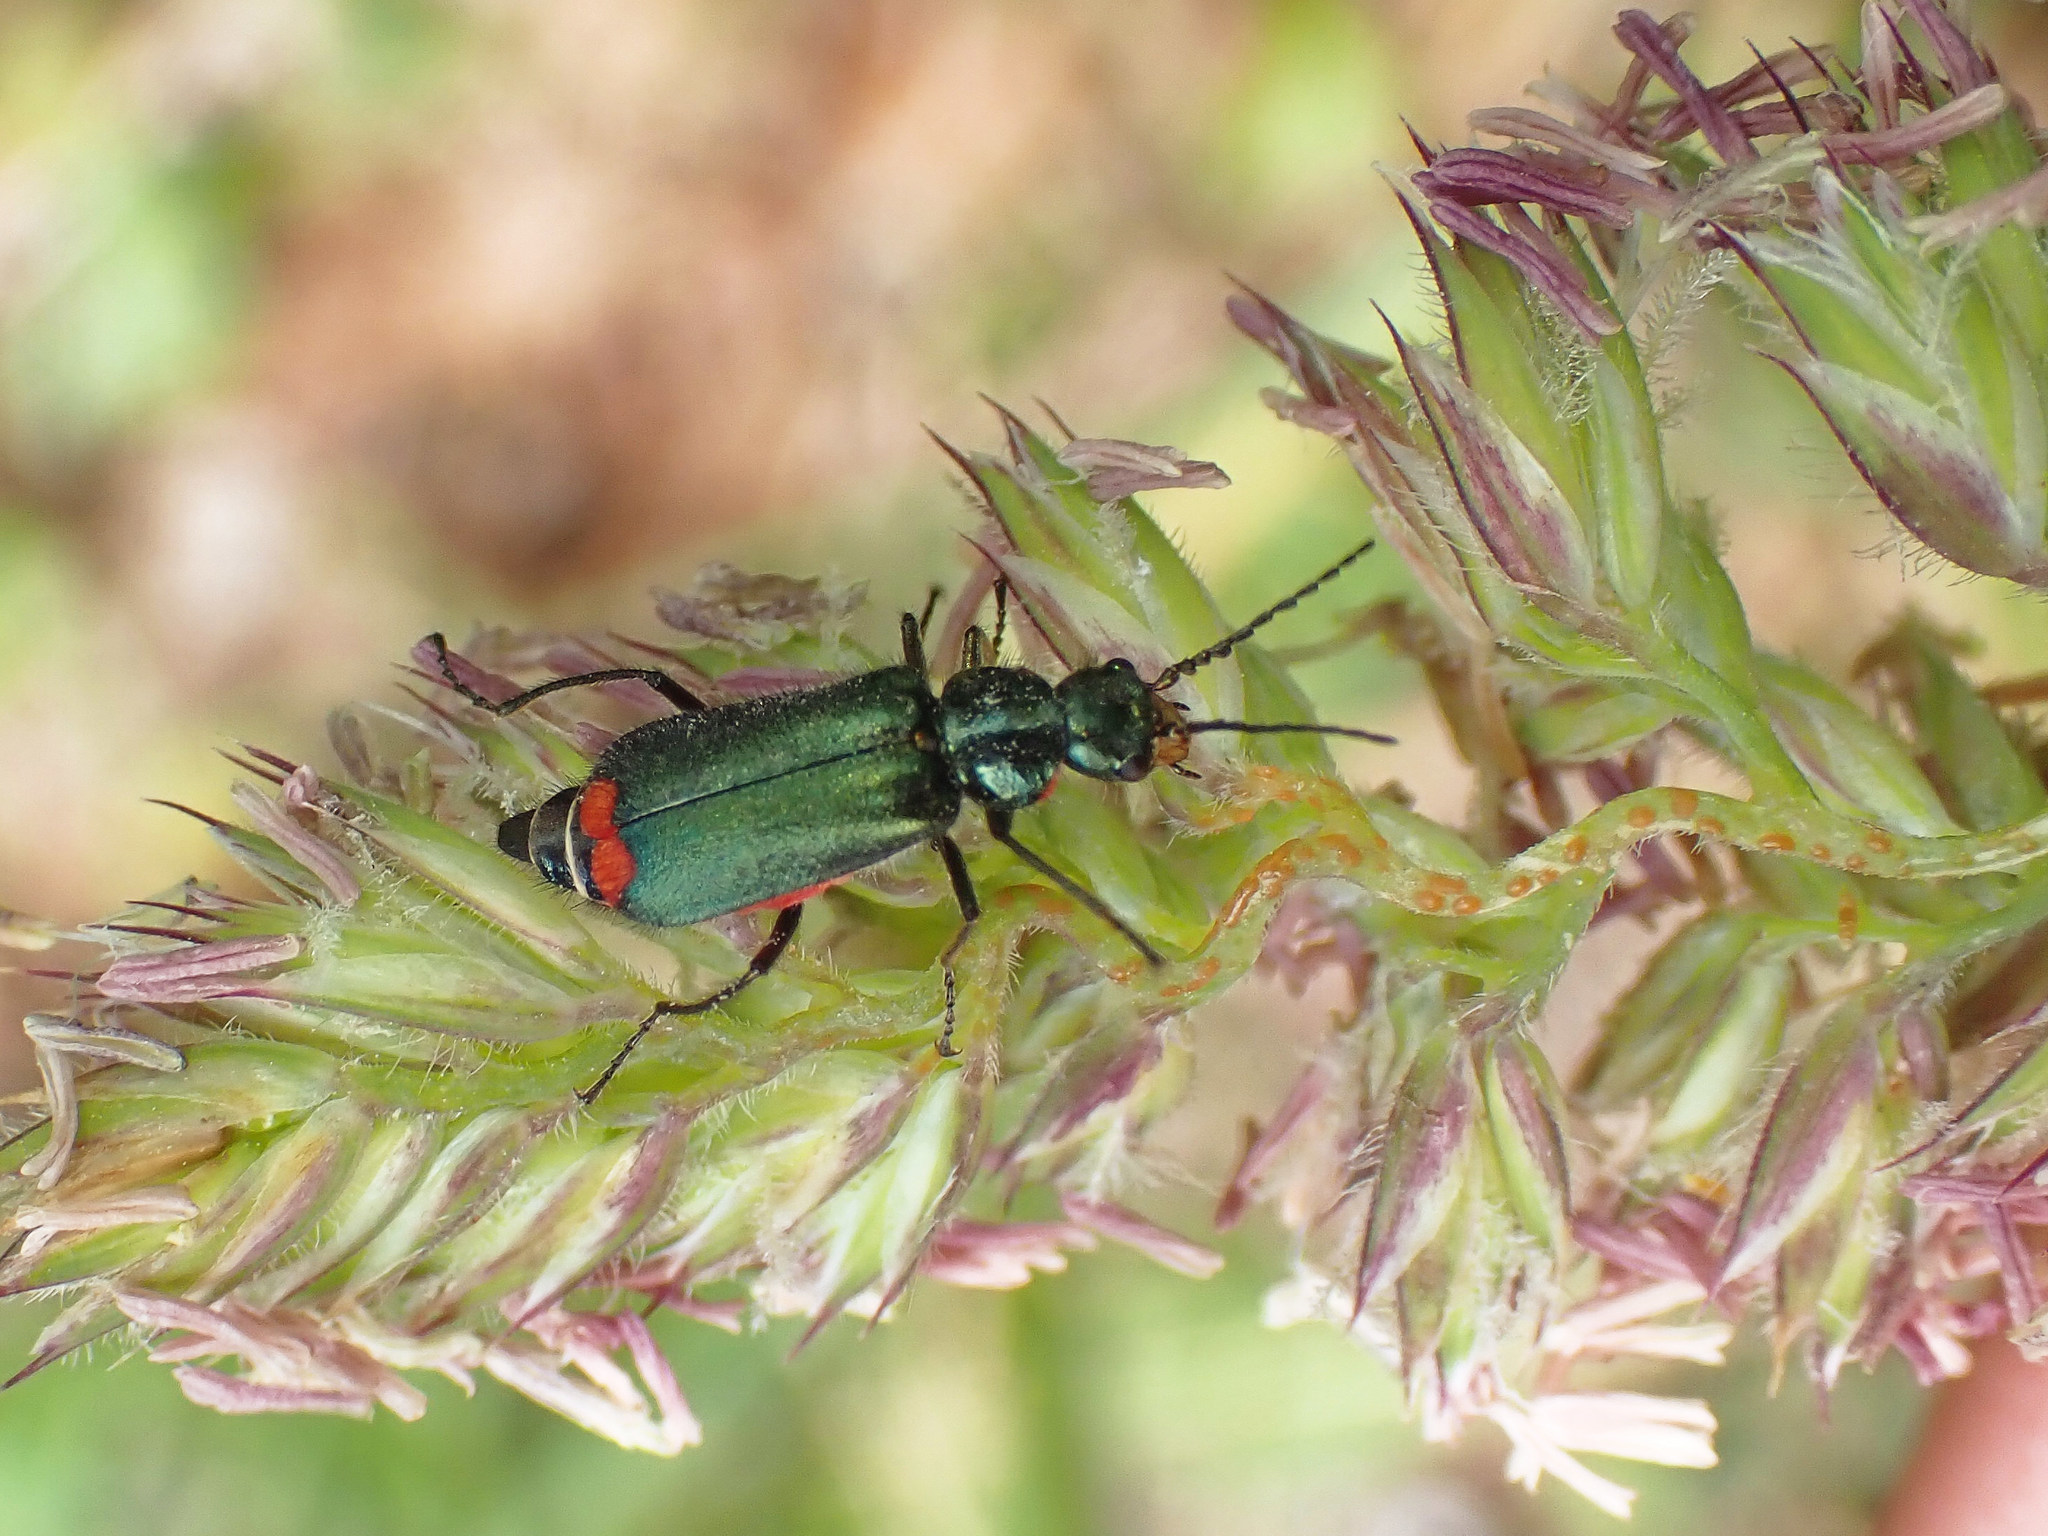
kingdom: Animalia
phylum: Arthropoda
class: Insecta
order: Coleoptera
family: Melyridae
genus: Malachius
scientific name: Malachius bipustulatus
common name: Malachite beetle
